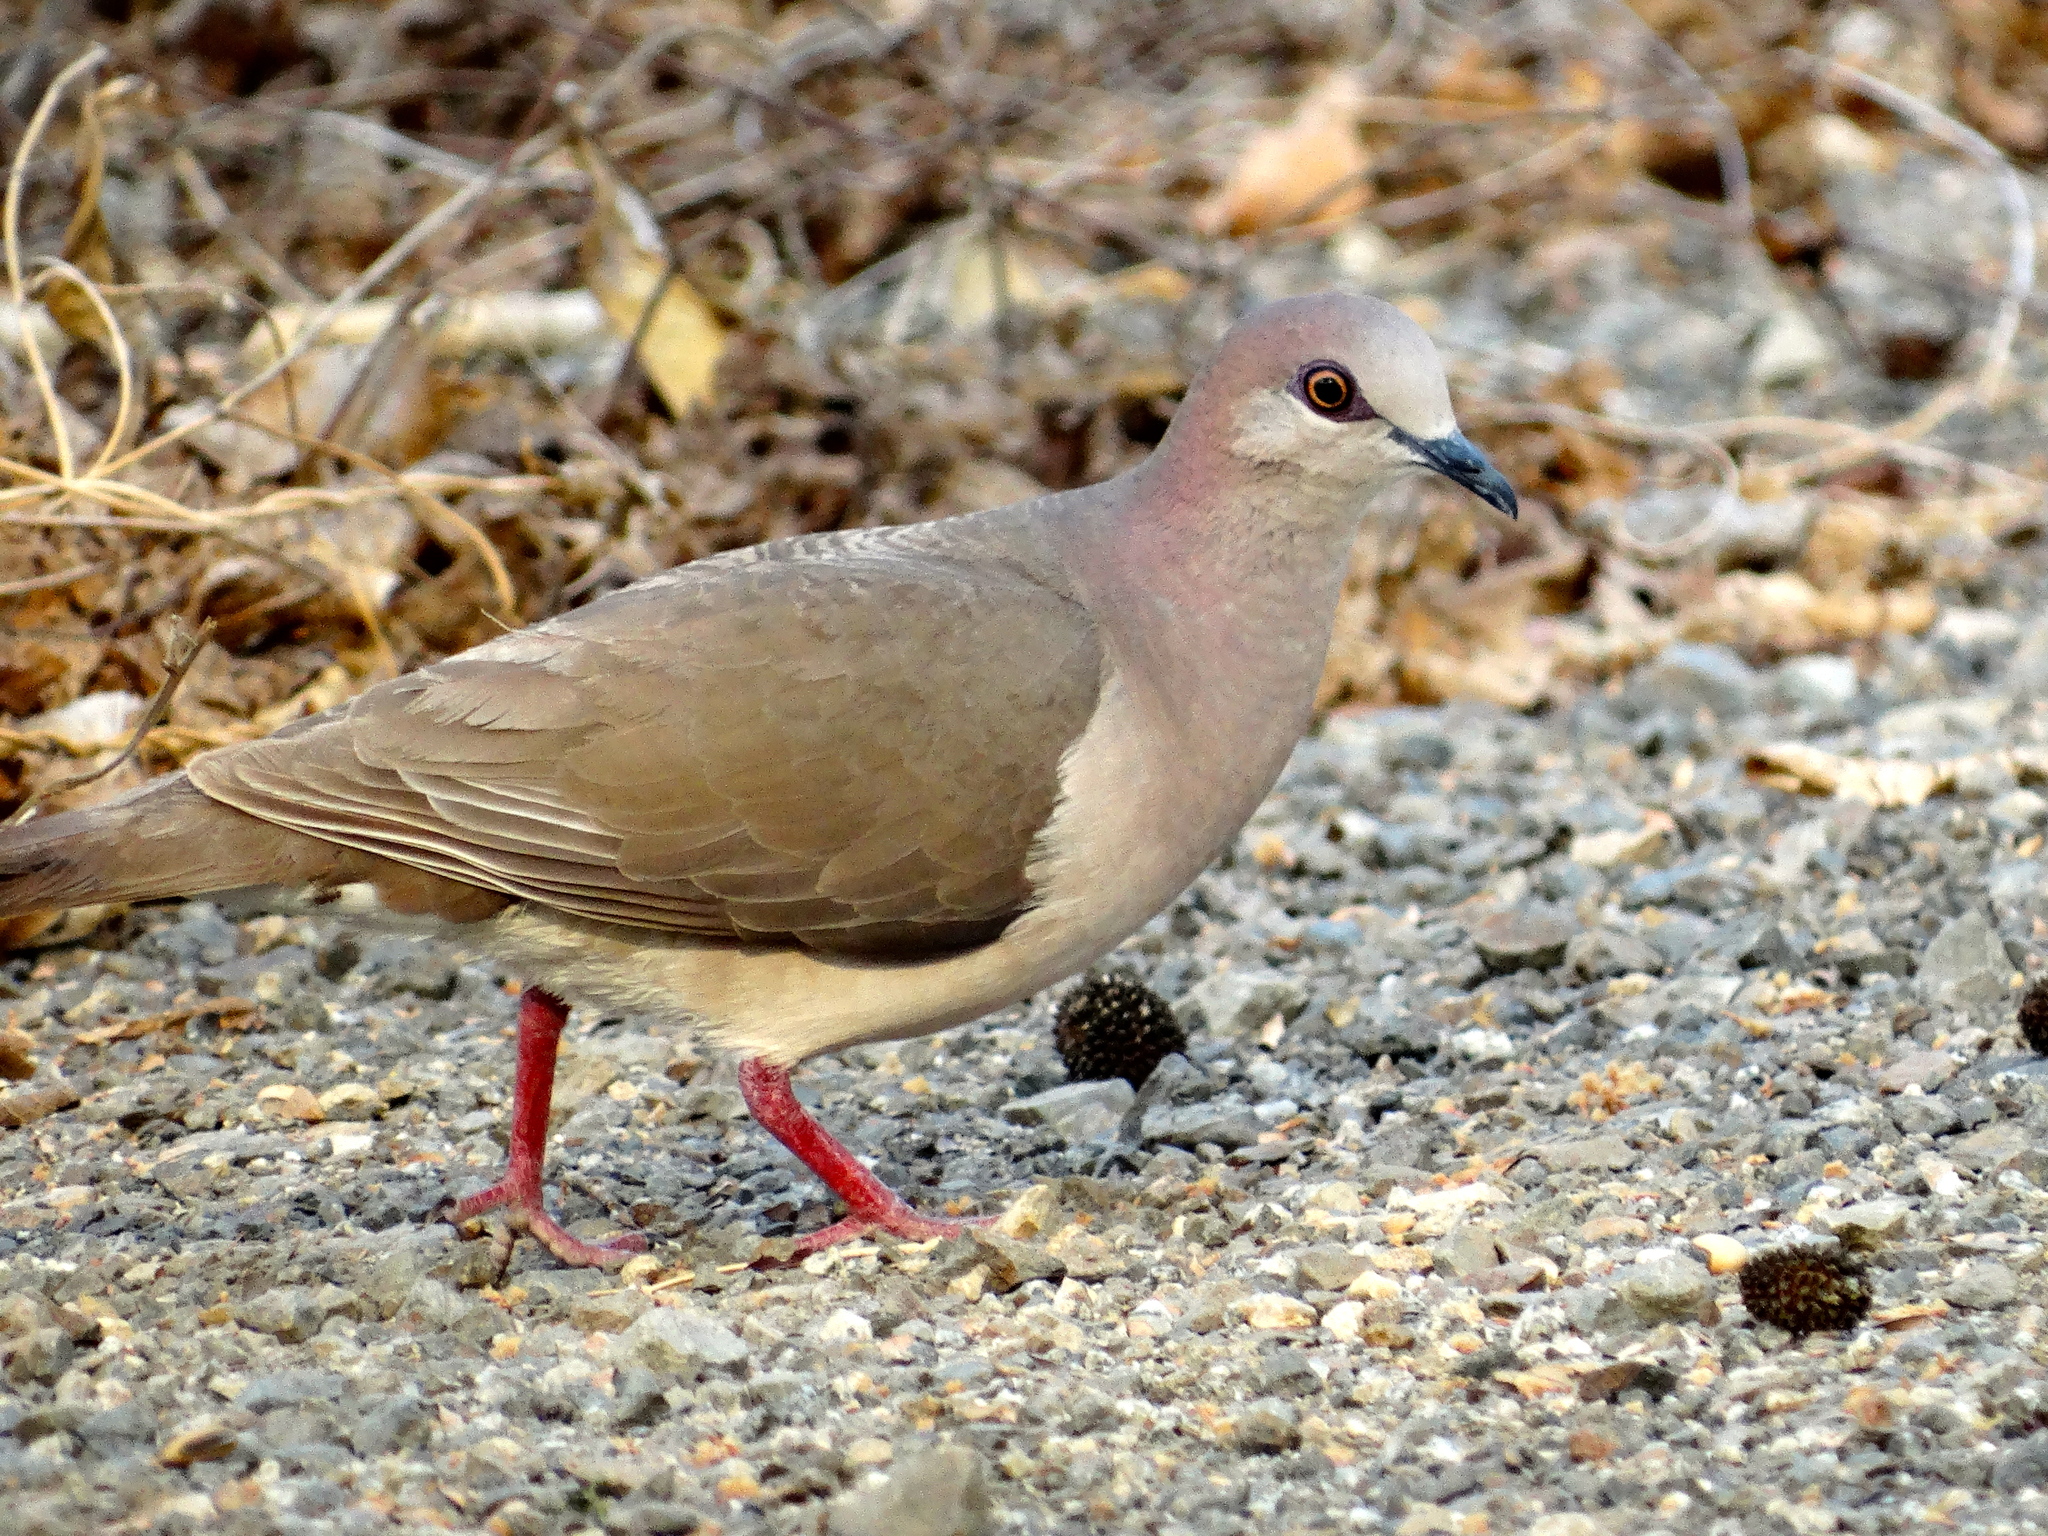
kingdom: Animalia
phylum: Chordata
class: Aves
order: Columbiformes
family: Columbidae
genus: Leptotila
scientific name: Leptotila verreauxi
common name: White-tipped dove
